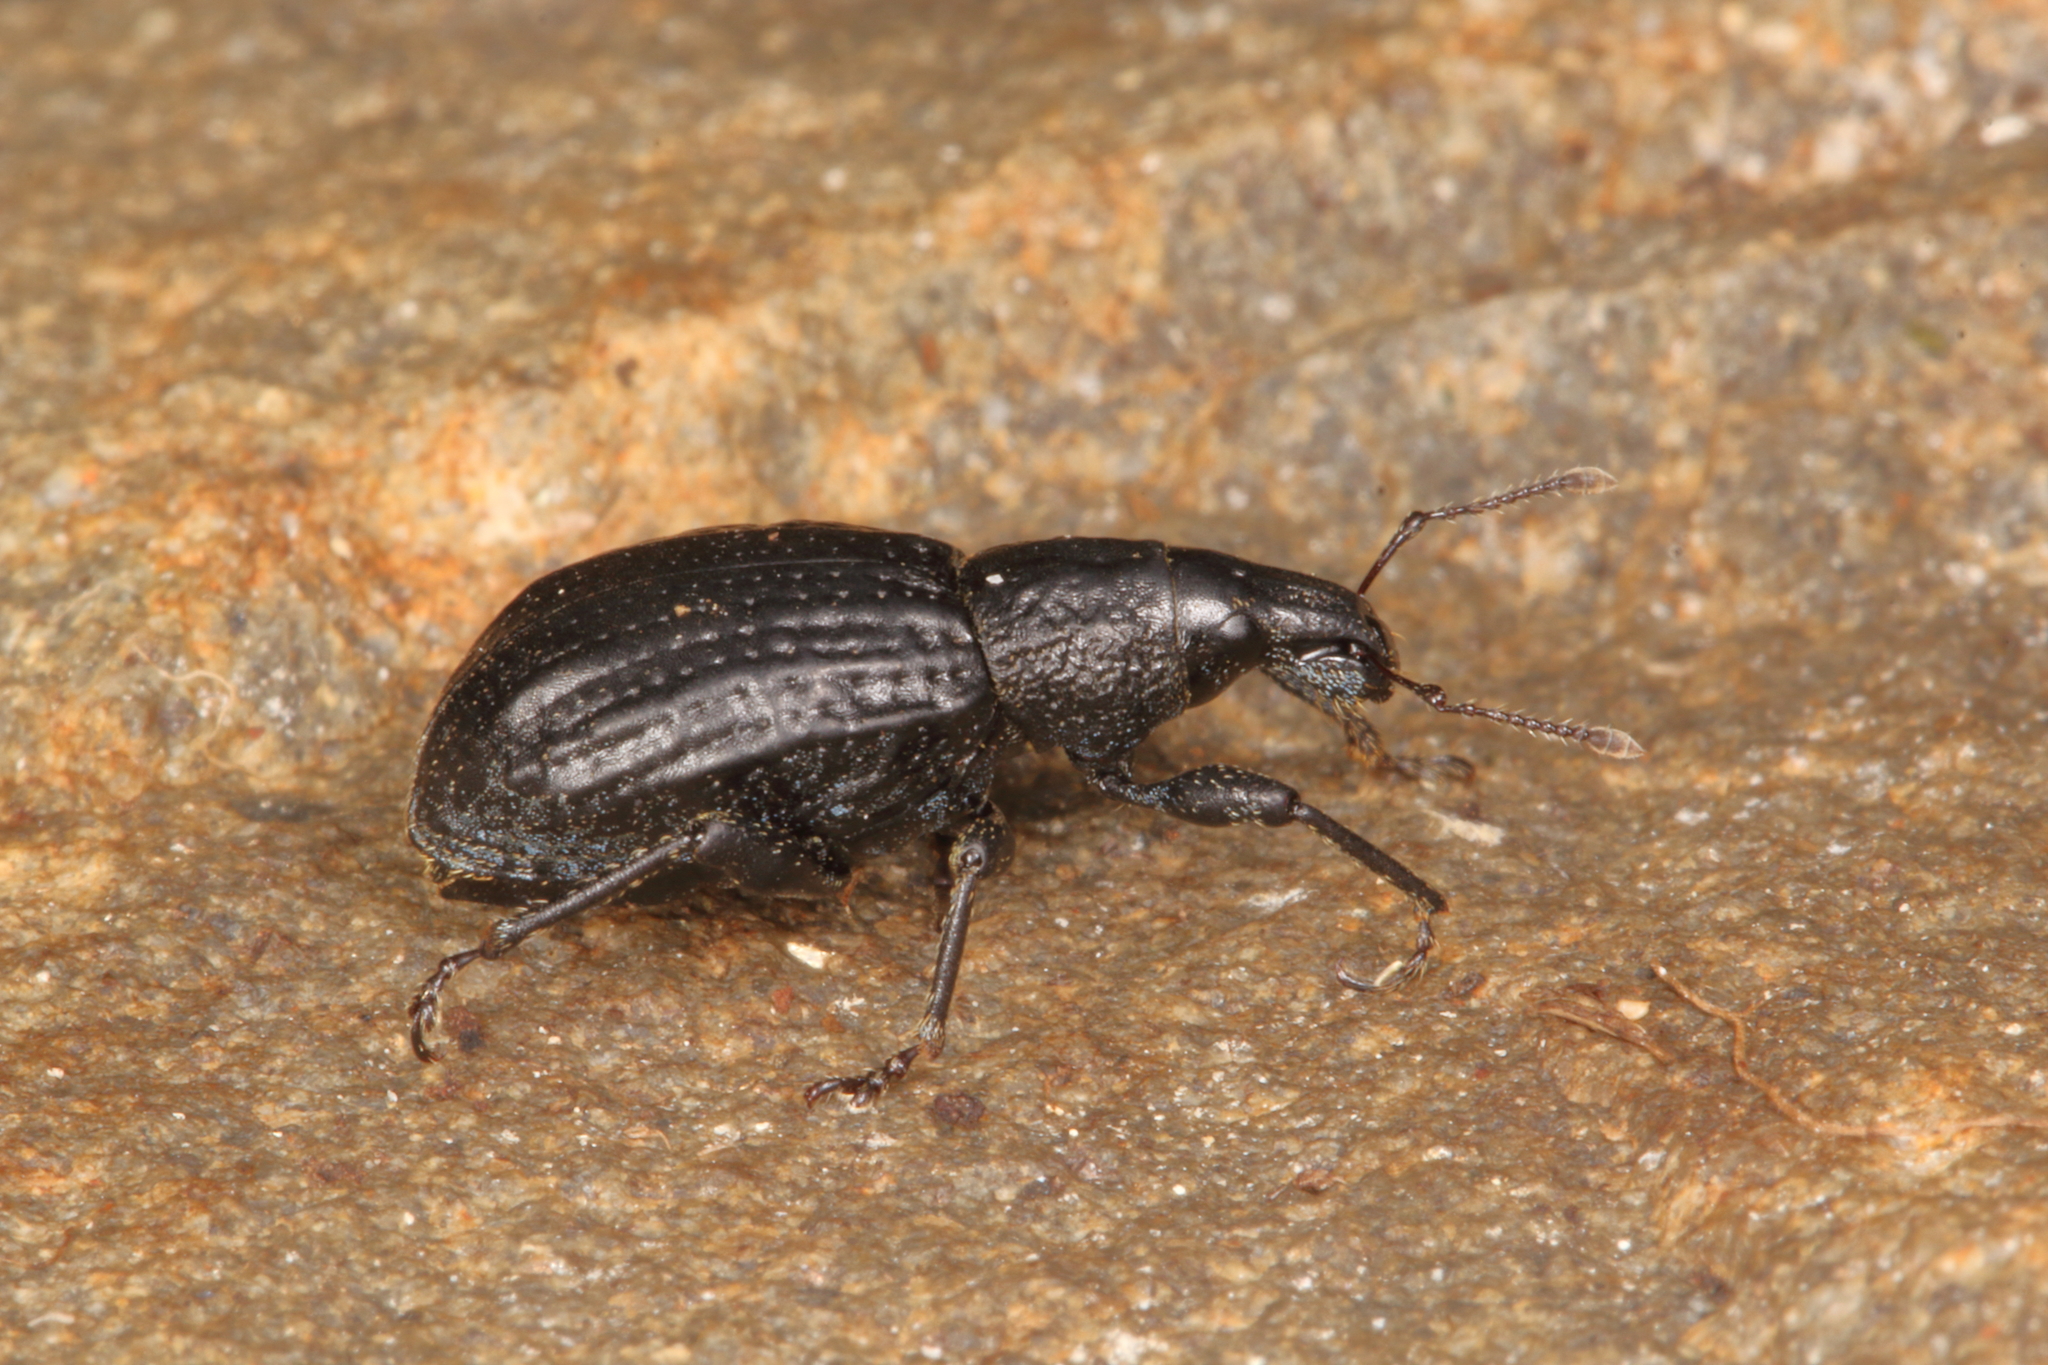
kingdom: Animalia
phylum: Arthropoda
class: Insecta
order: Coleoptera
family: Curculionidae
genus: Catoptes
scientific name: Catoptes funestus
